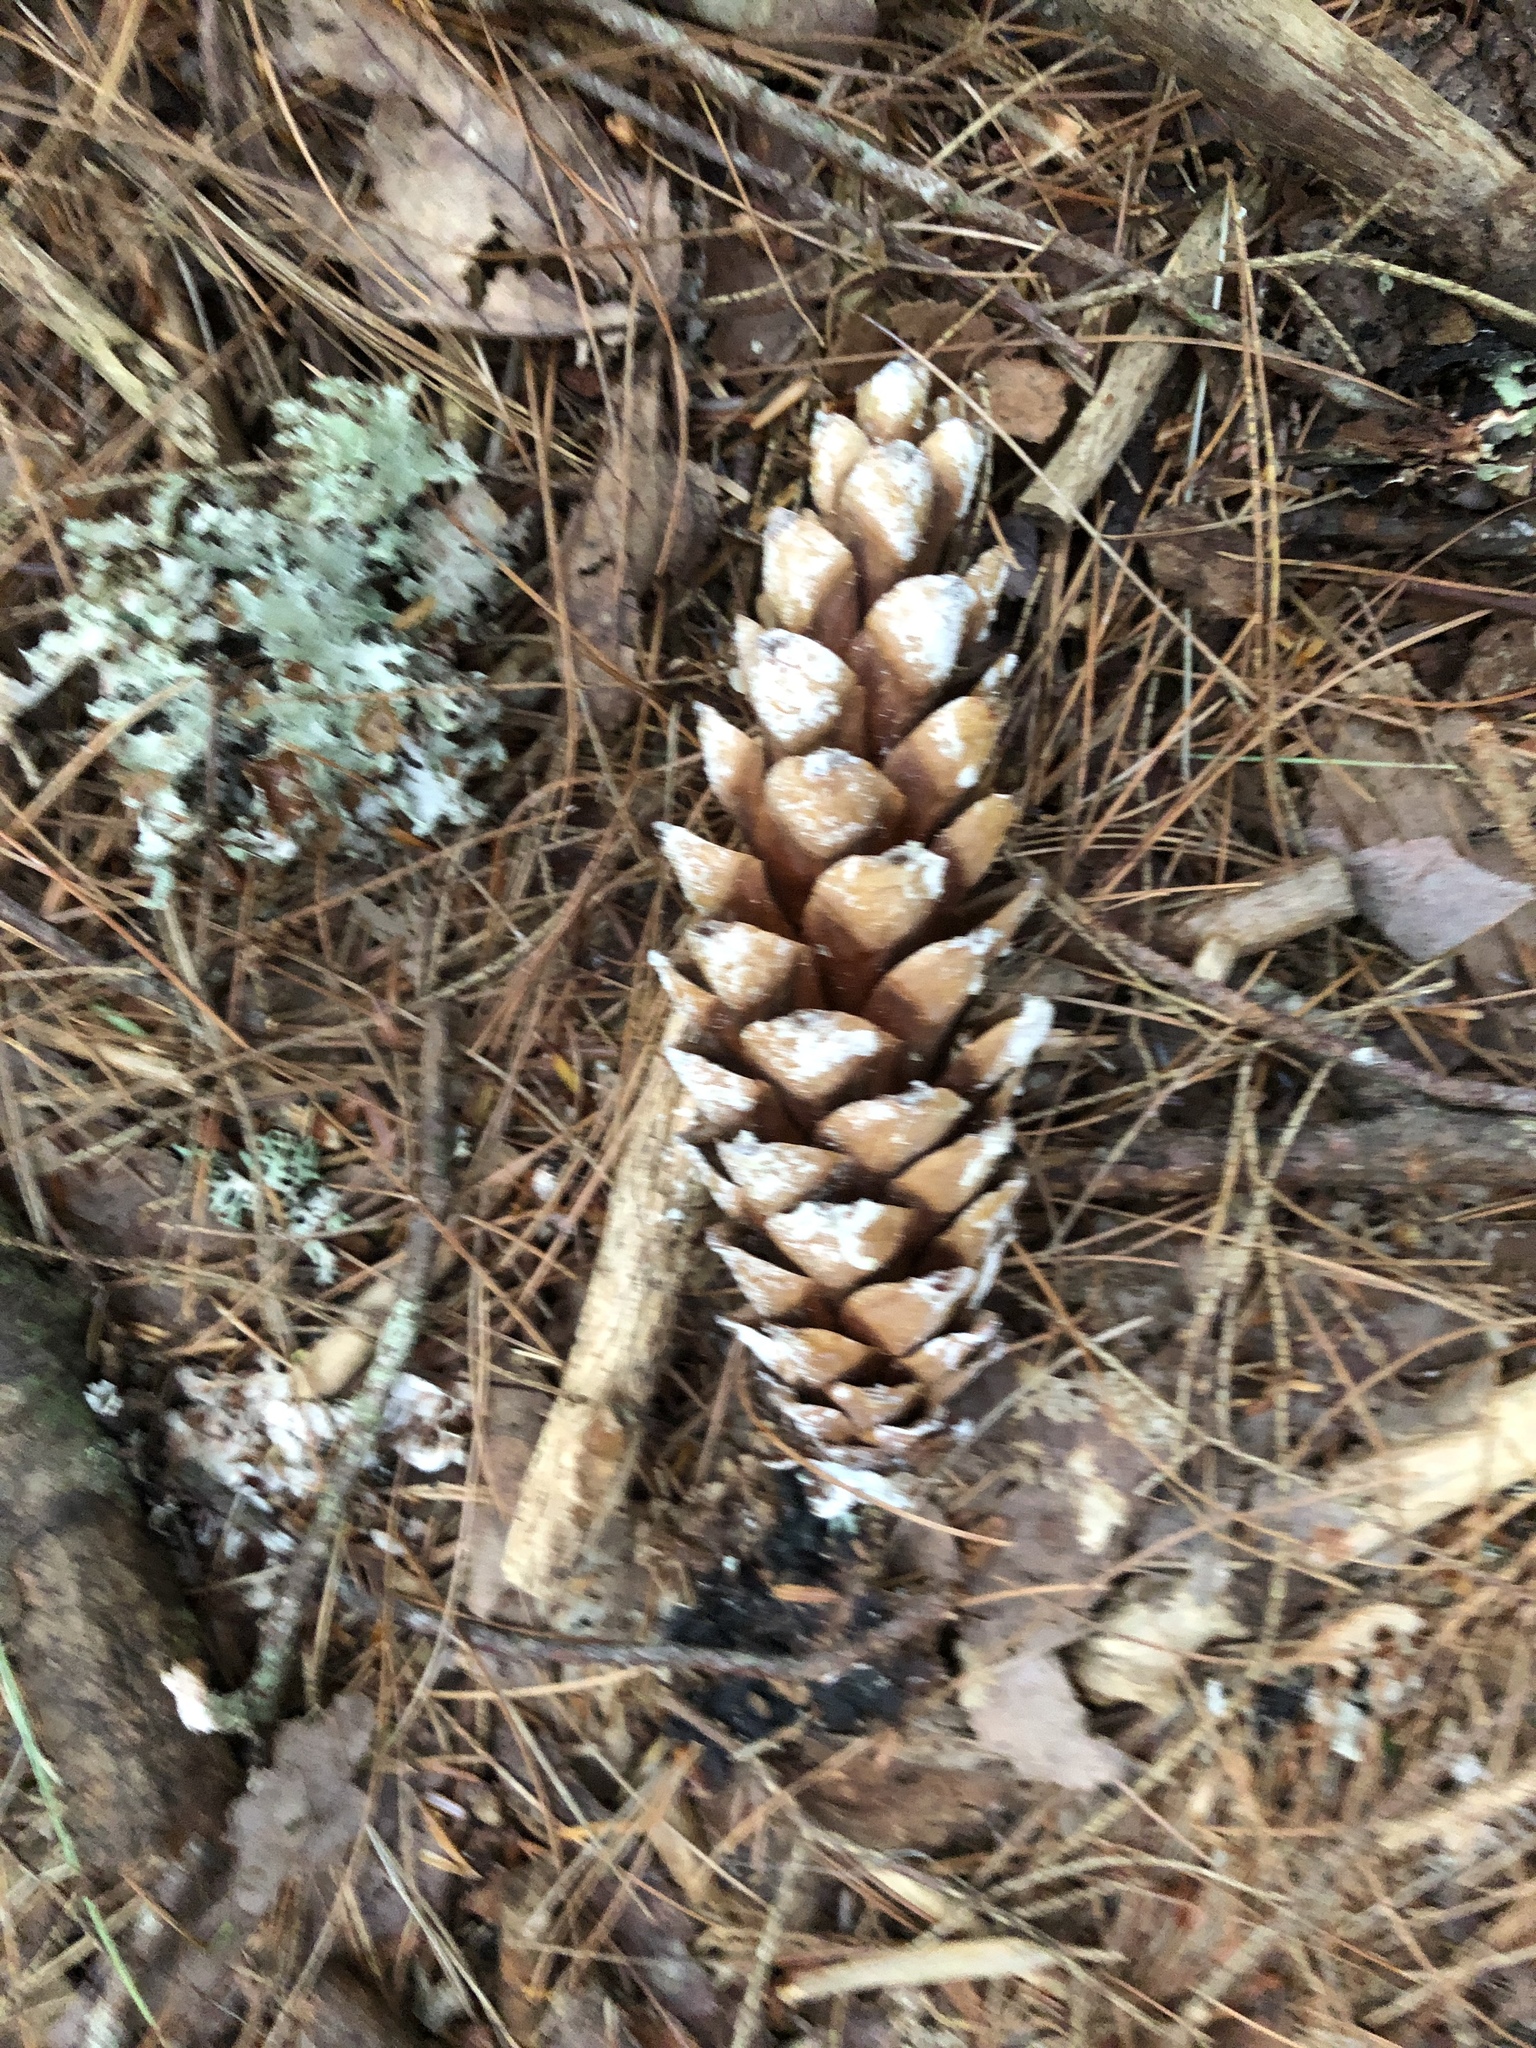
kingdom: Plantae
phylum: Tracheophyta
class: Pinopsida
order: Pinales
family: Pinaceae
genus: Pinus
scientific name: Pinus strobus
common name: Weymouth pine
